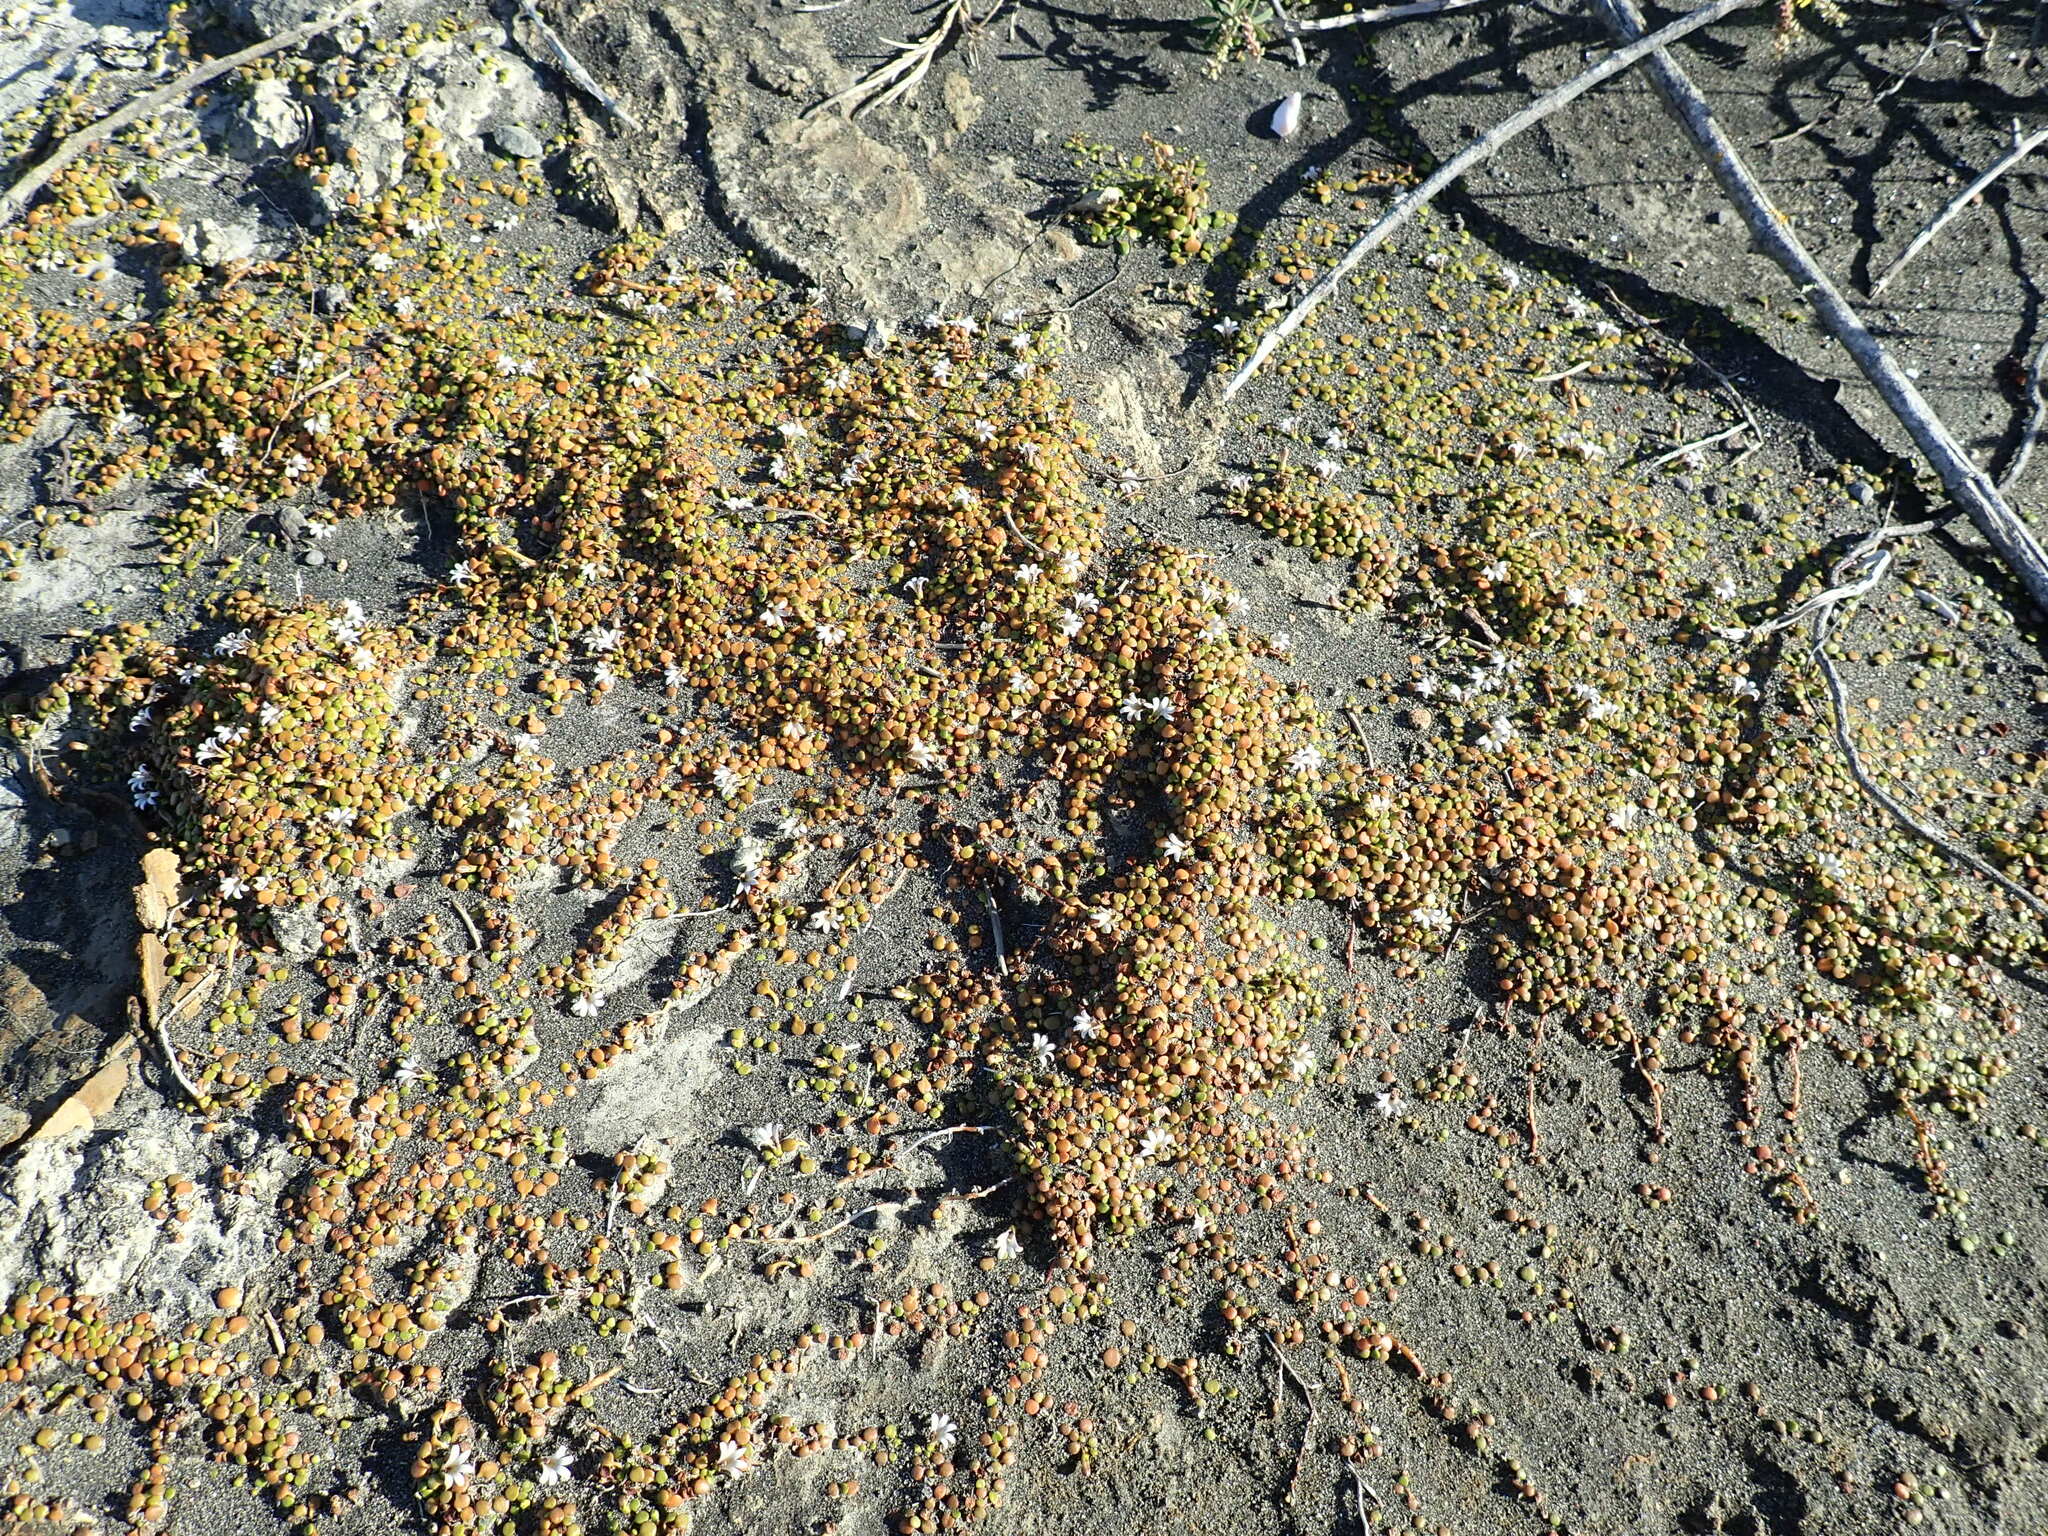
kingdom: Plantae
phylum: Tracheophyta
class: Magnoliopsida
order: Asterales
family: Goodeniaceae
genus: Goodenia
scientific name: Goodenia heenanii
